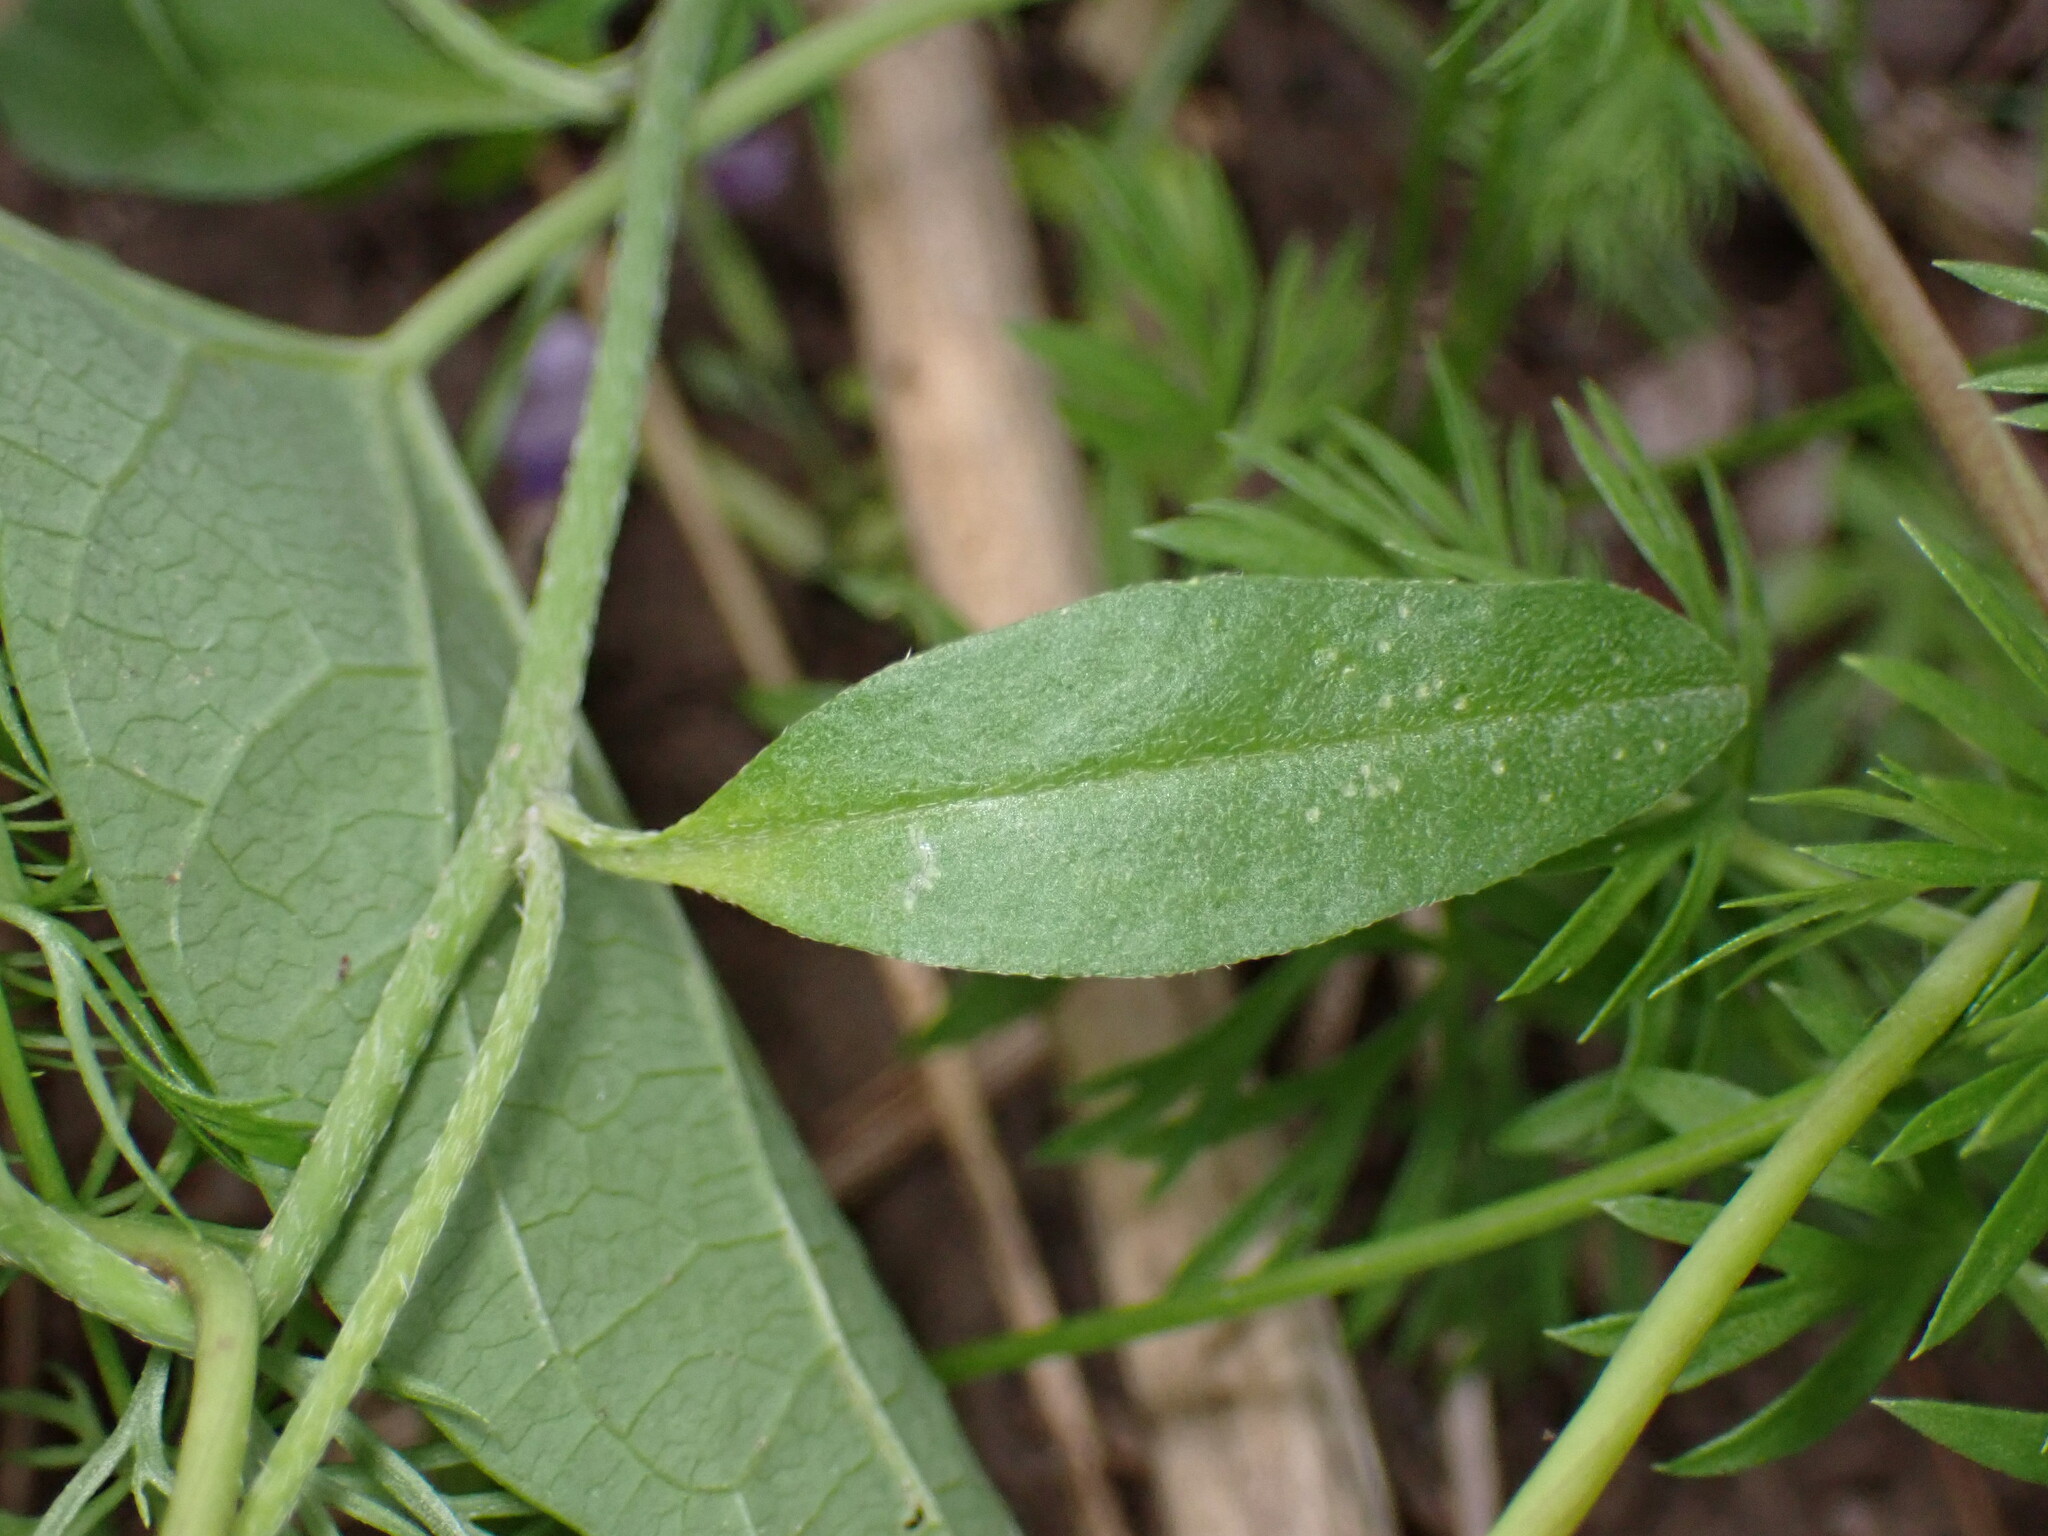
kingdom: Plantae
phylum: Tracheophyta
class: Magnoliopsida
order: Brassicales
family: Brassicaceae
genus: Hesperis
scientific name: Hesperis matronalis
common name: Dame's-violet
